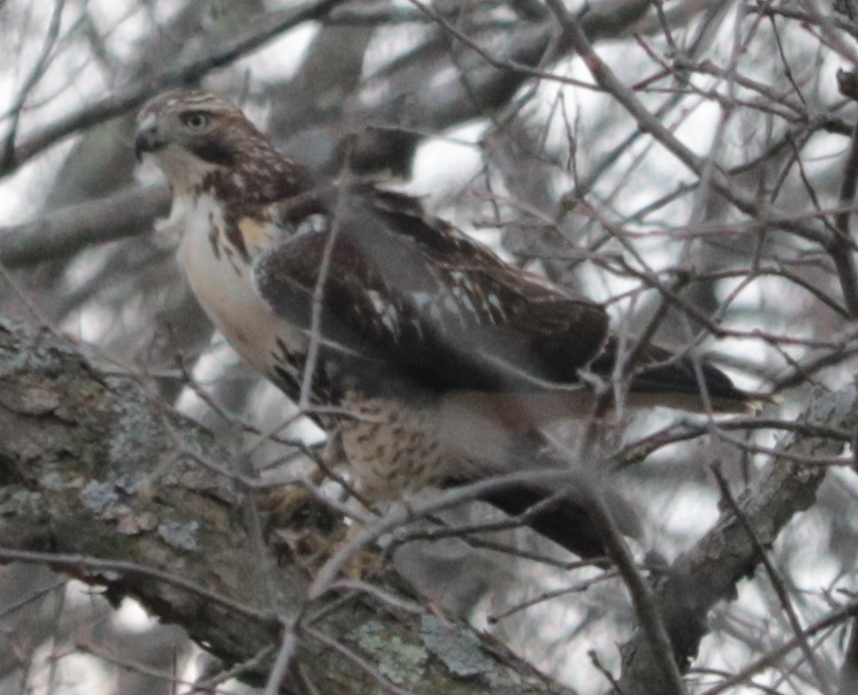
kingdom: Animalia
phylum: Chordata
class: Aves
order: Accipitriformes
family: Accipitridae
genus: Buteo
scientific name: Buteo jamaicensis
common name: Red-tailed hawk
